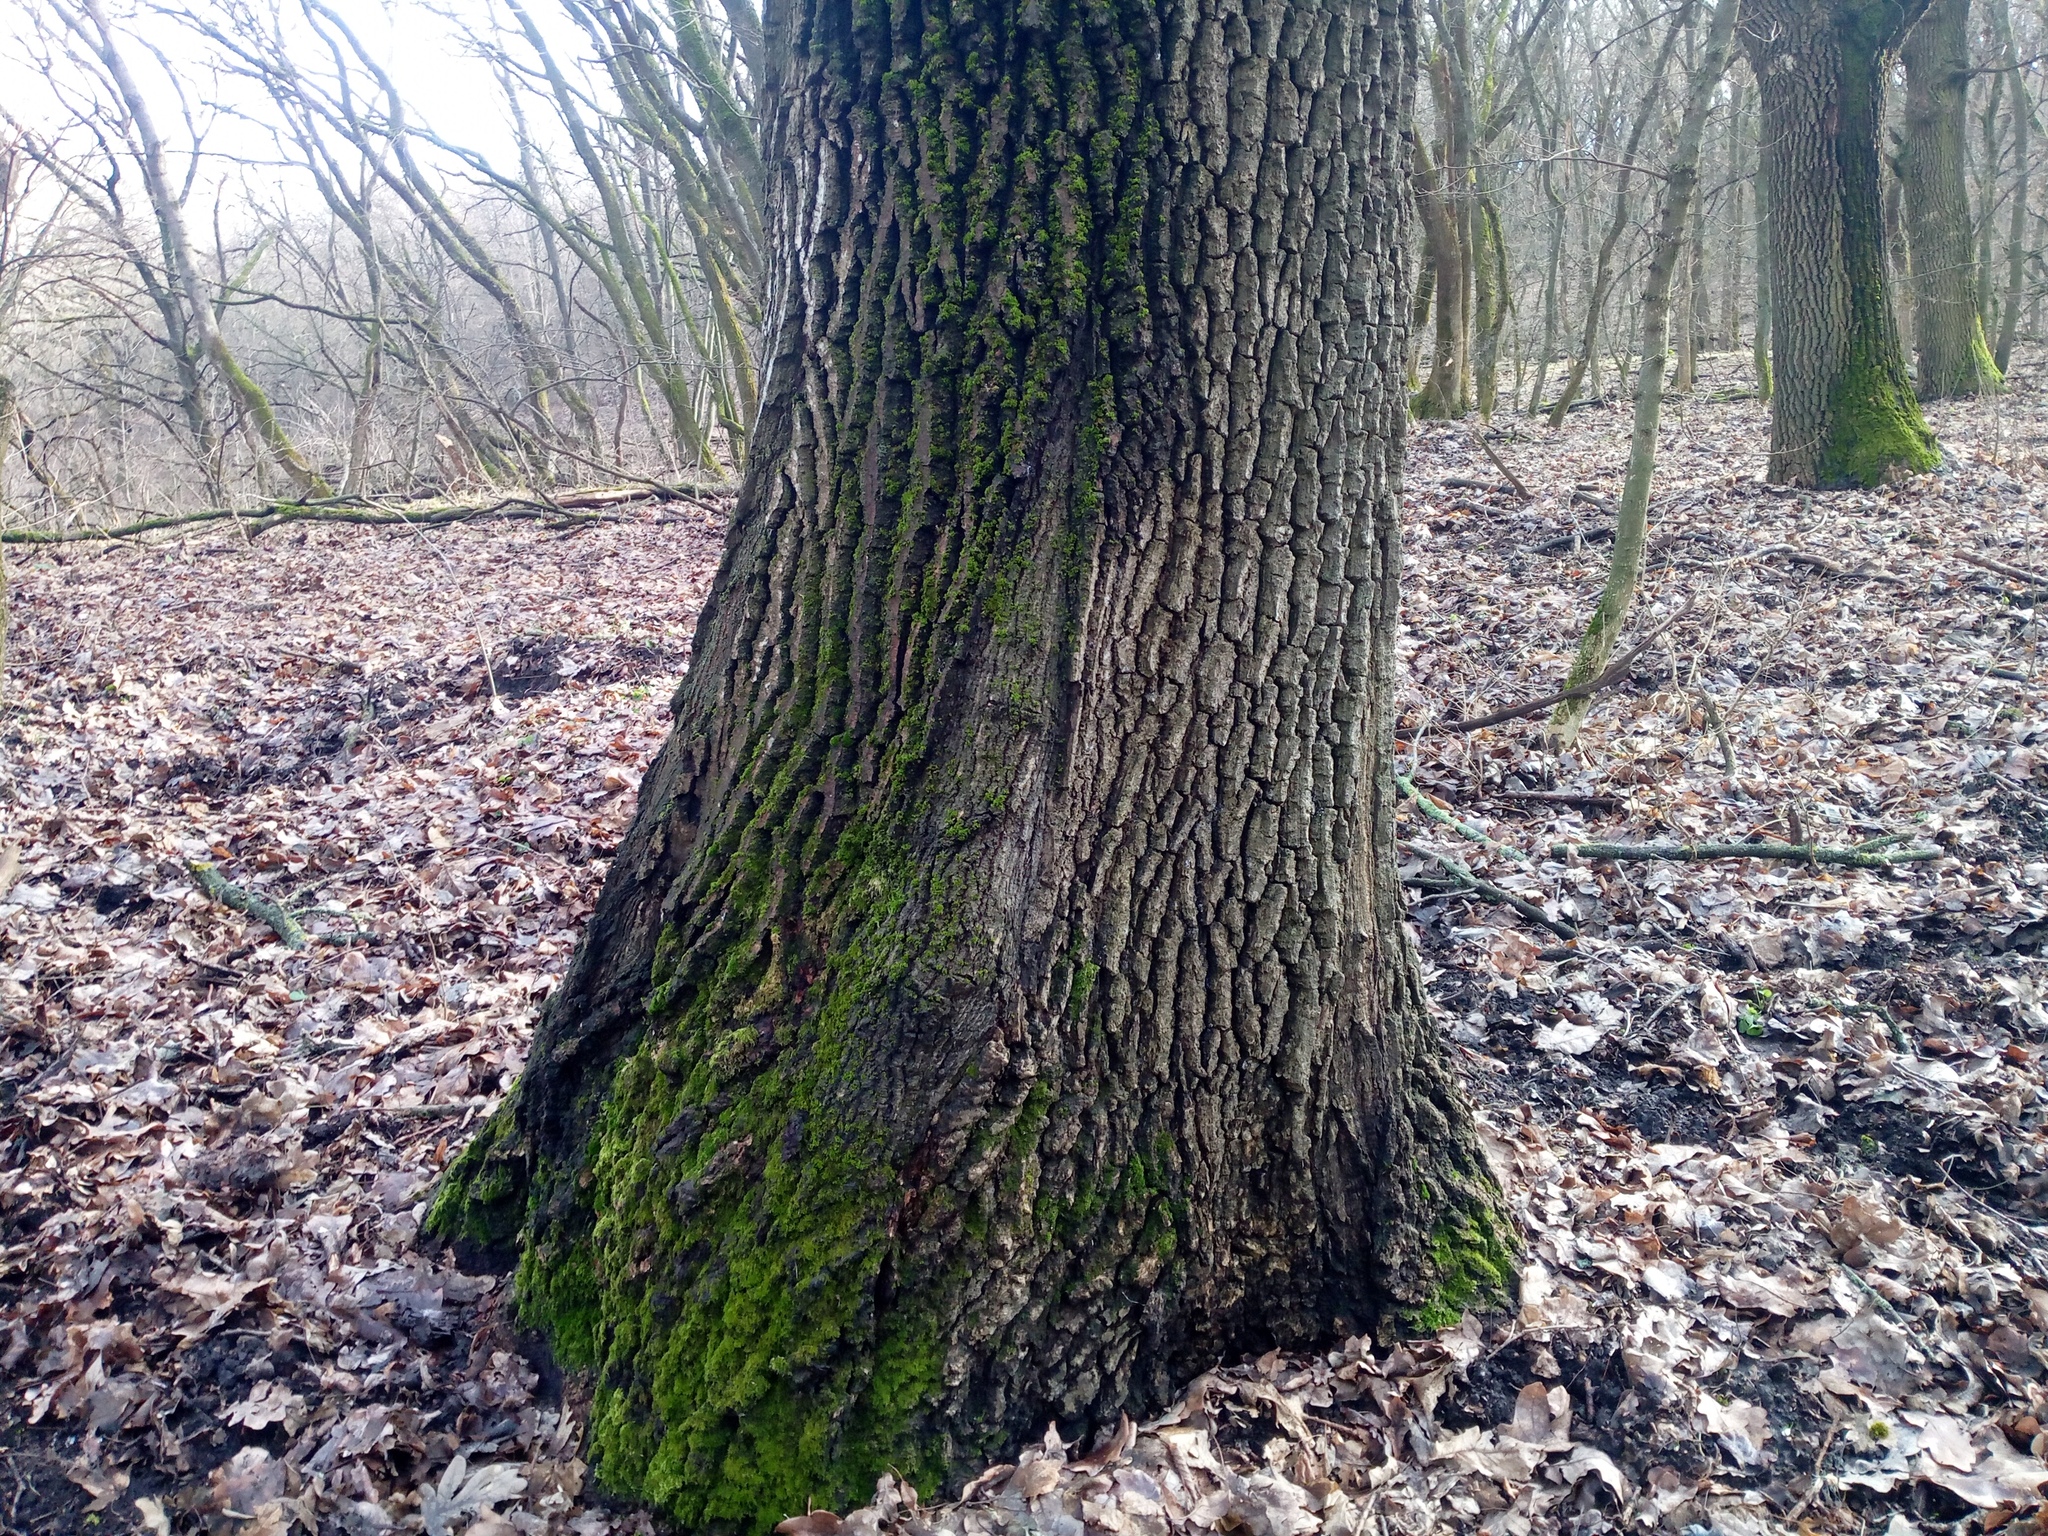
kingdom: Plantae
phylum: Tracheophyta
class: Magnoliopsida
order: Fagales
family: Fagaceae
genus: Quercus
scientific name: Quercus robur
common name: Pedunculate oak
